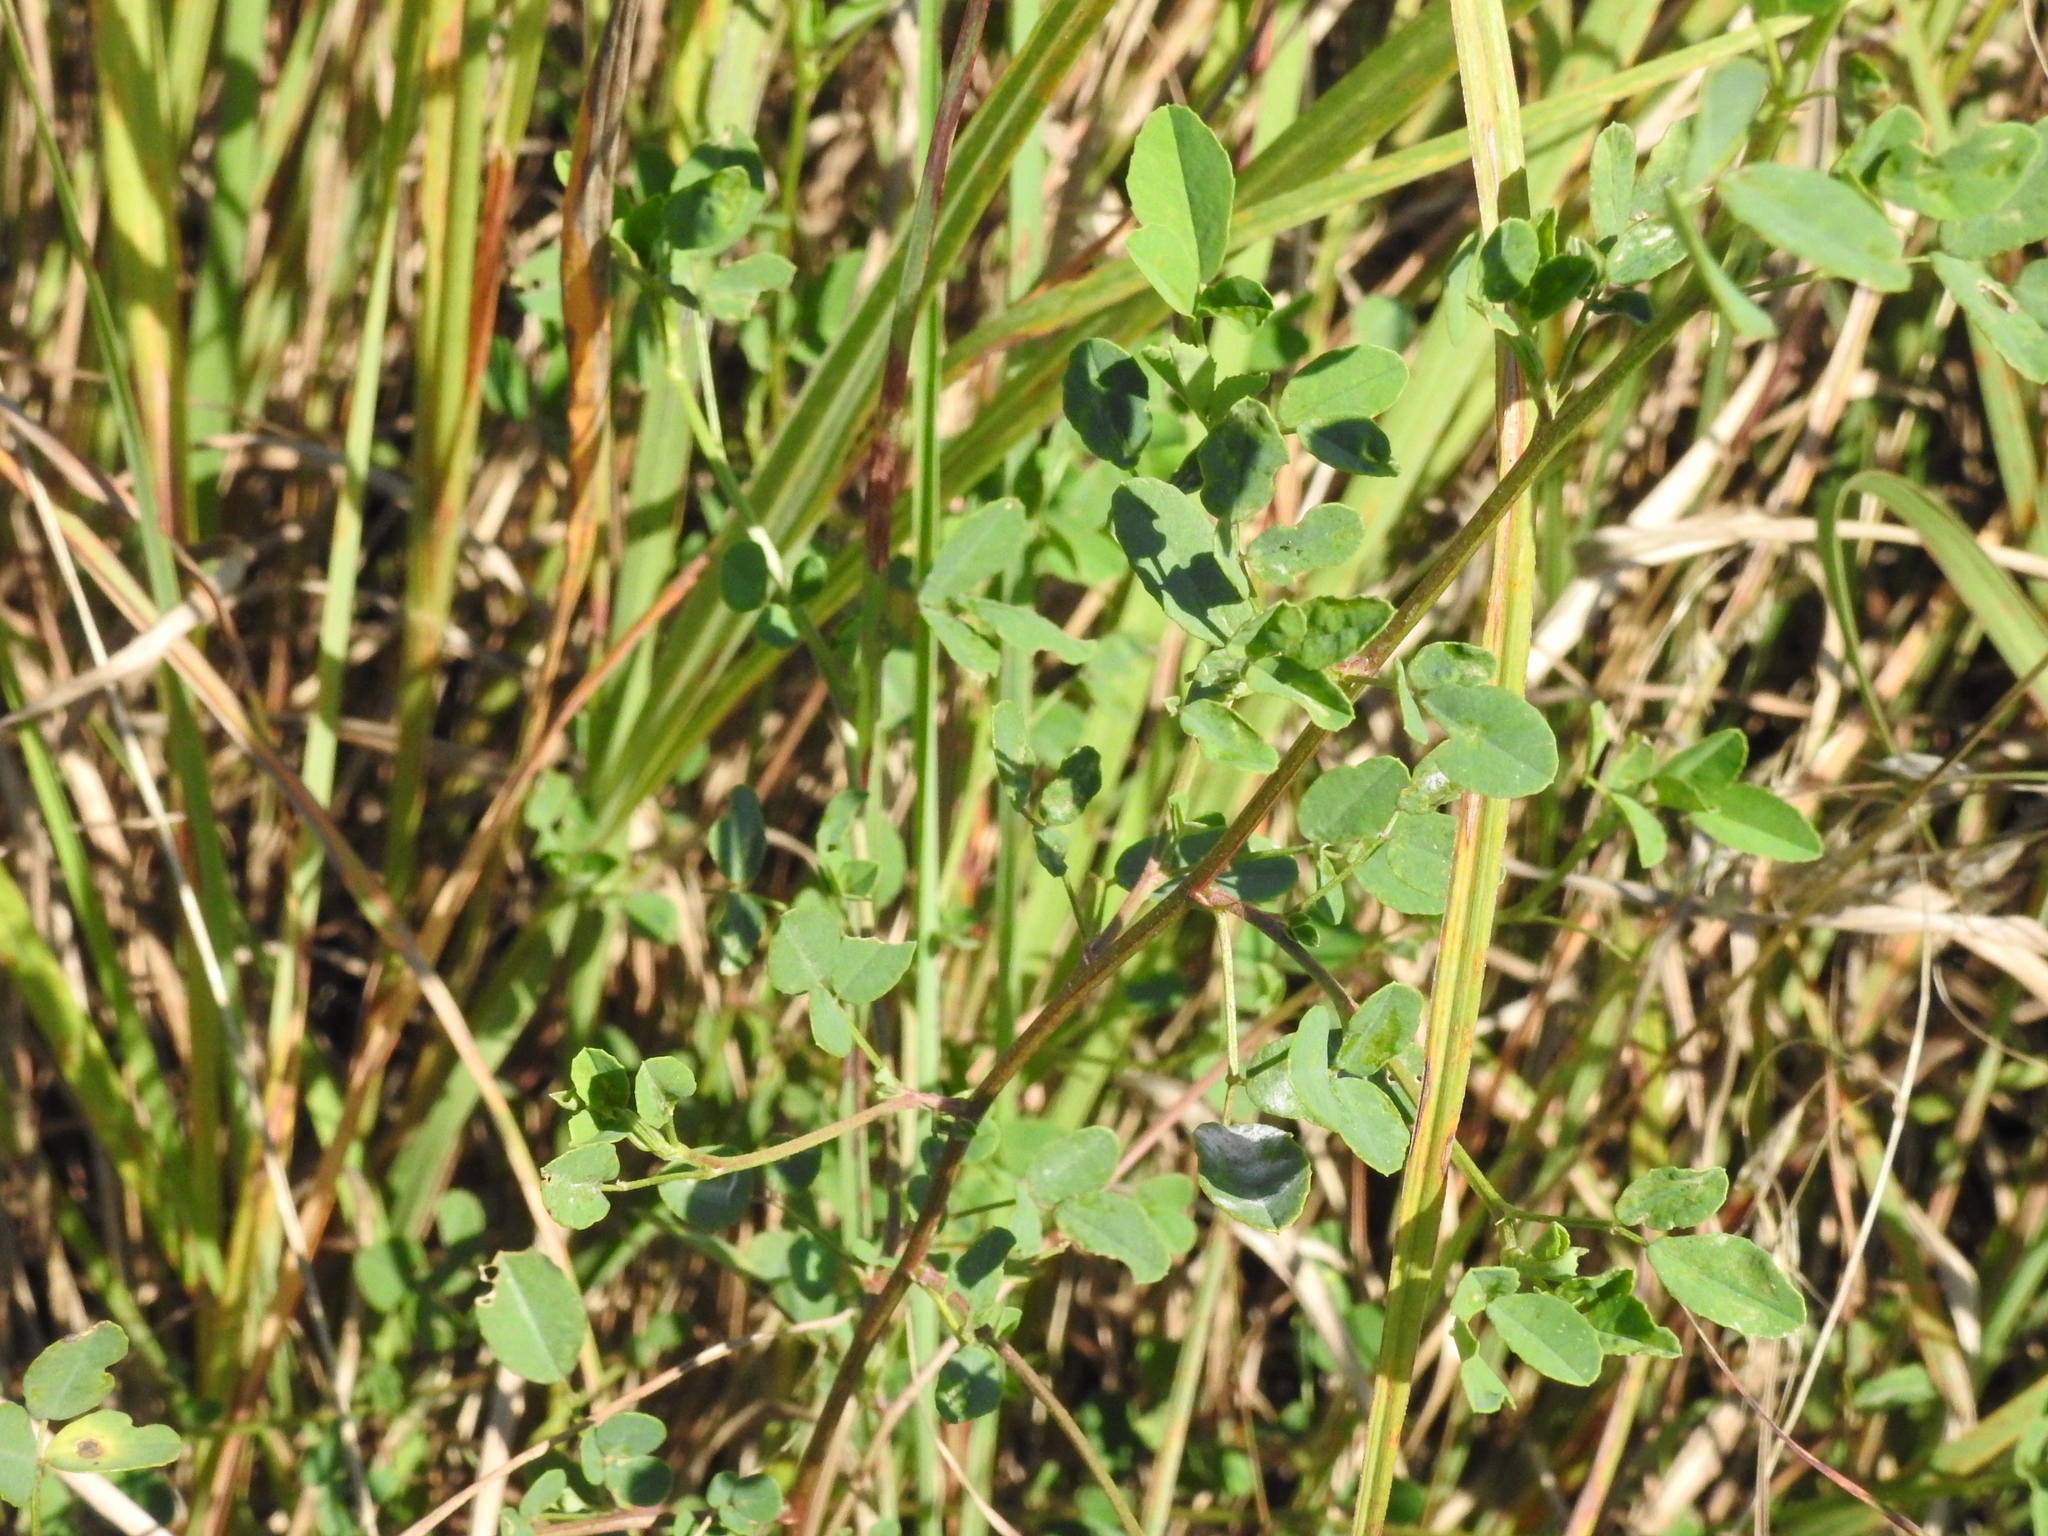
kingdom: Plantae
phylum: Tracheophyta
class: Magnoliopsida
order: Fabales
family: Fabaceae
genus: Melilotus
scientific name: Melilotus albus
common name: White melilot
